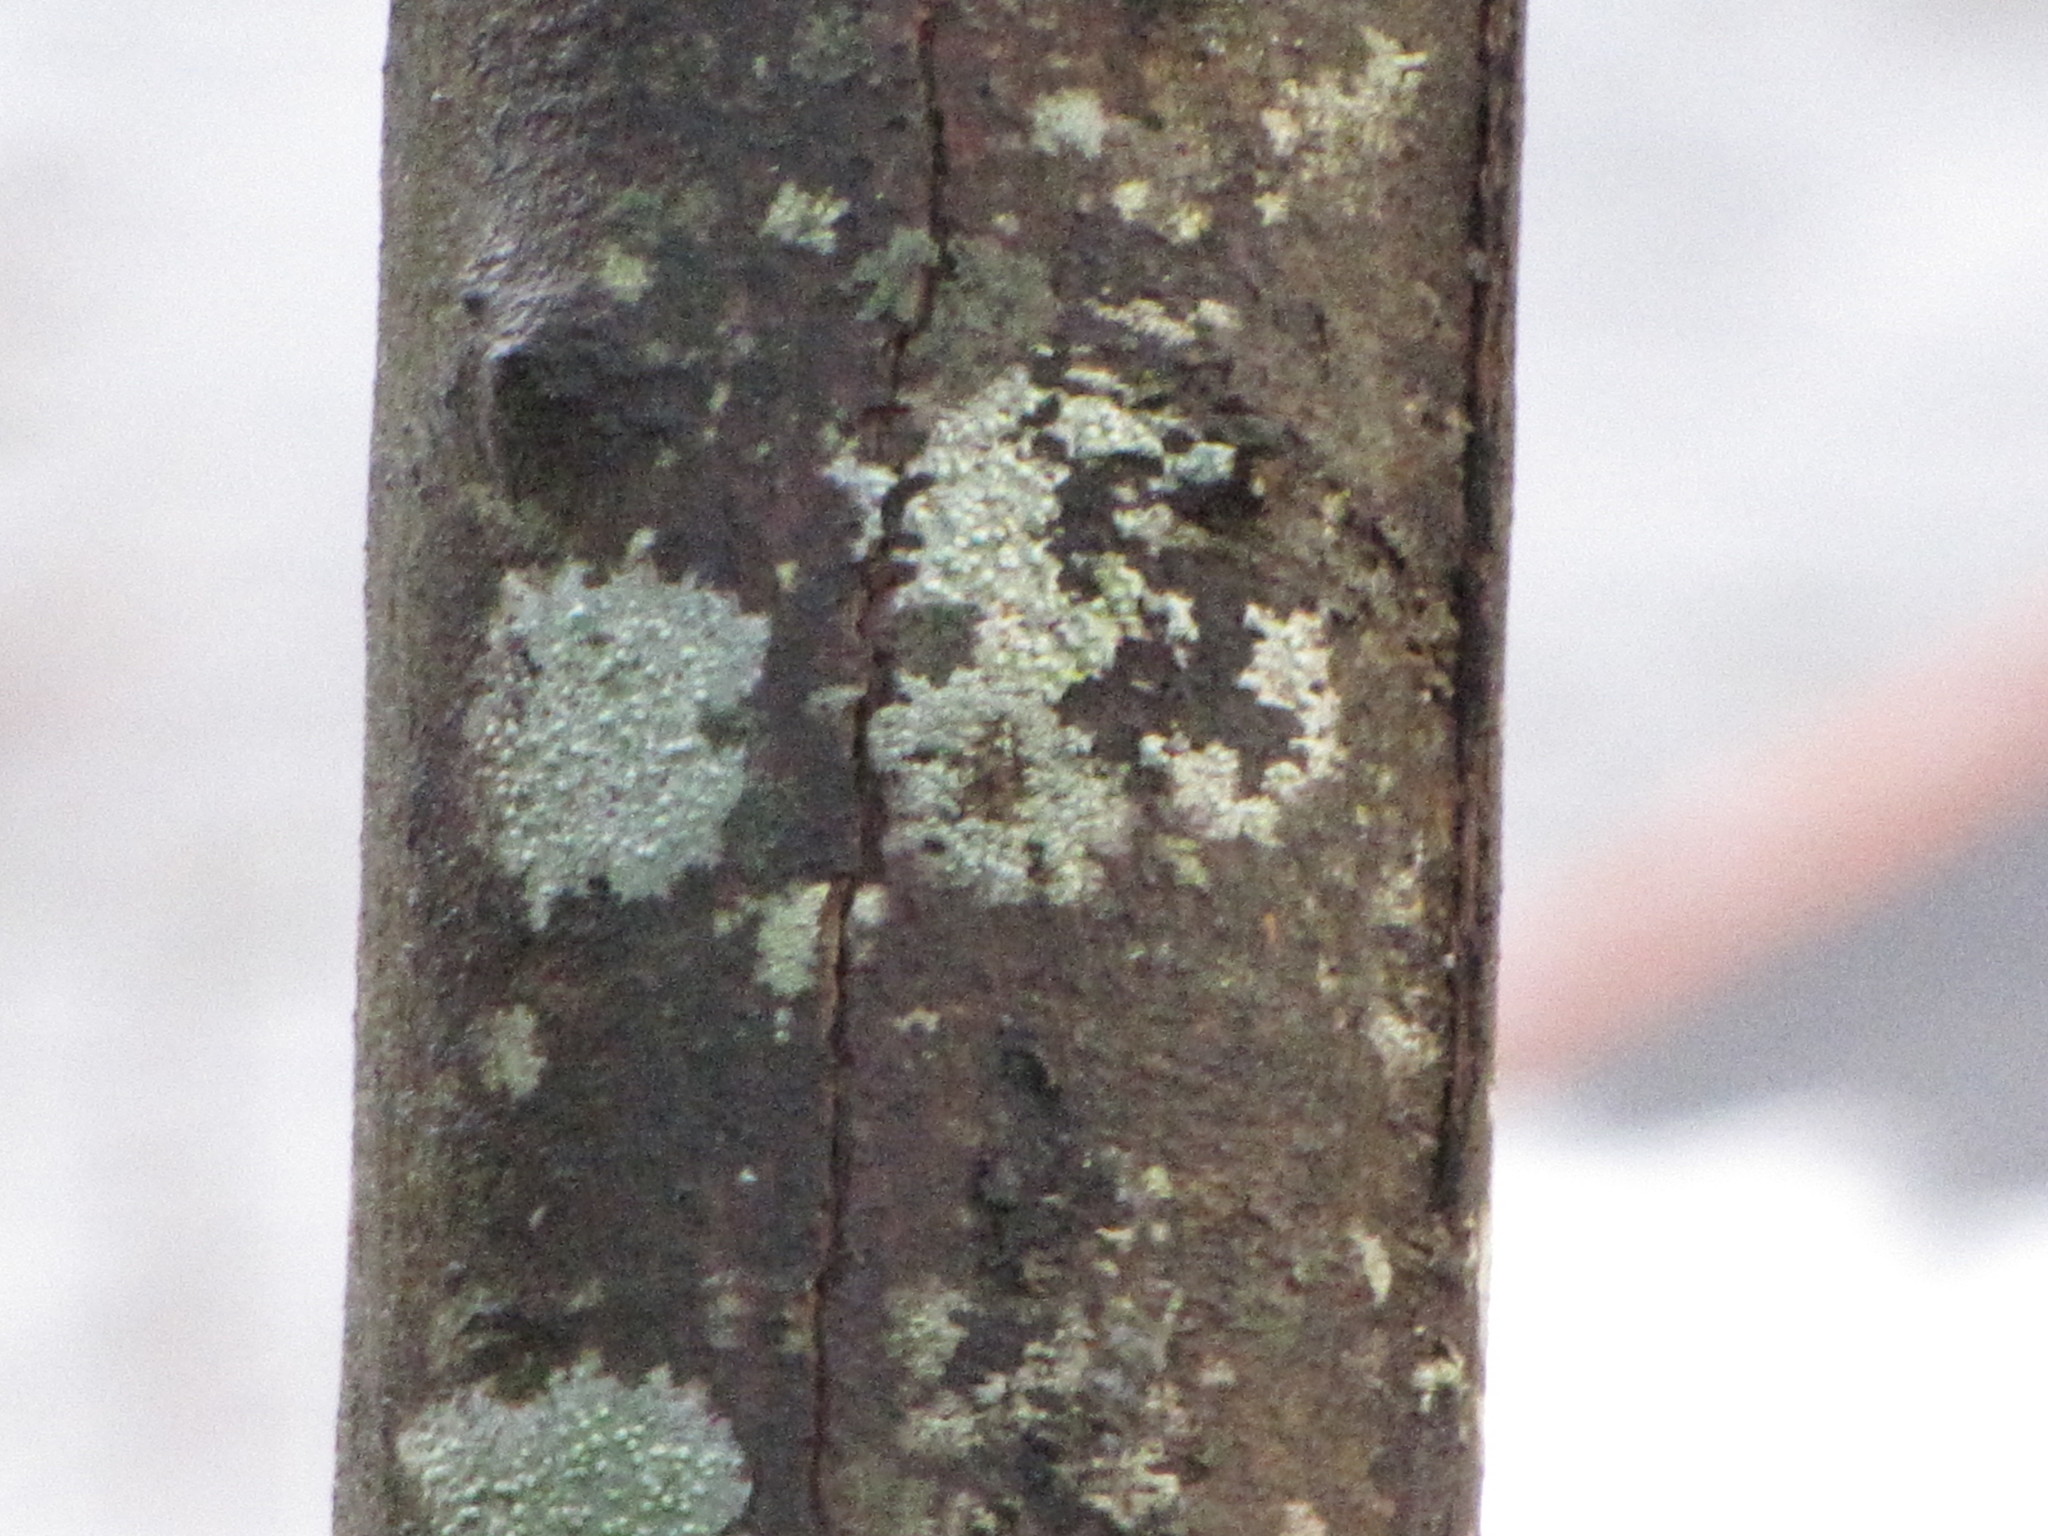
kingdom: Fungi
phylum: Ascomycota
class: Lecanoromycetes
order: Lecanorales
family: Parmeliaceae
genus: Parmelia
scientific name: Parmelia sulcata
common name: Netted shield lichen
